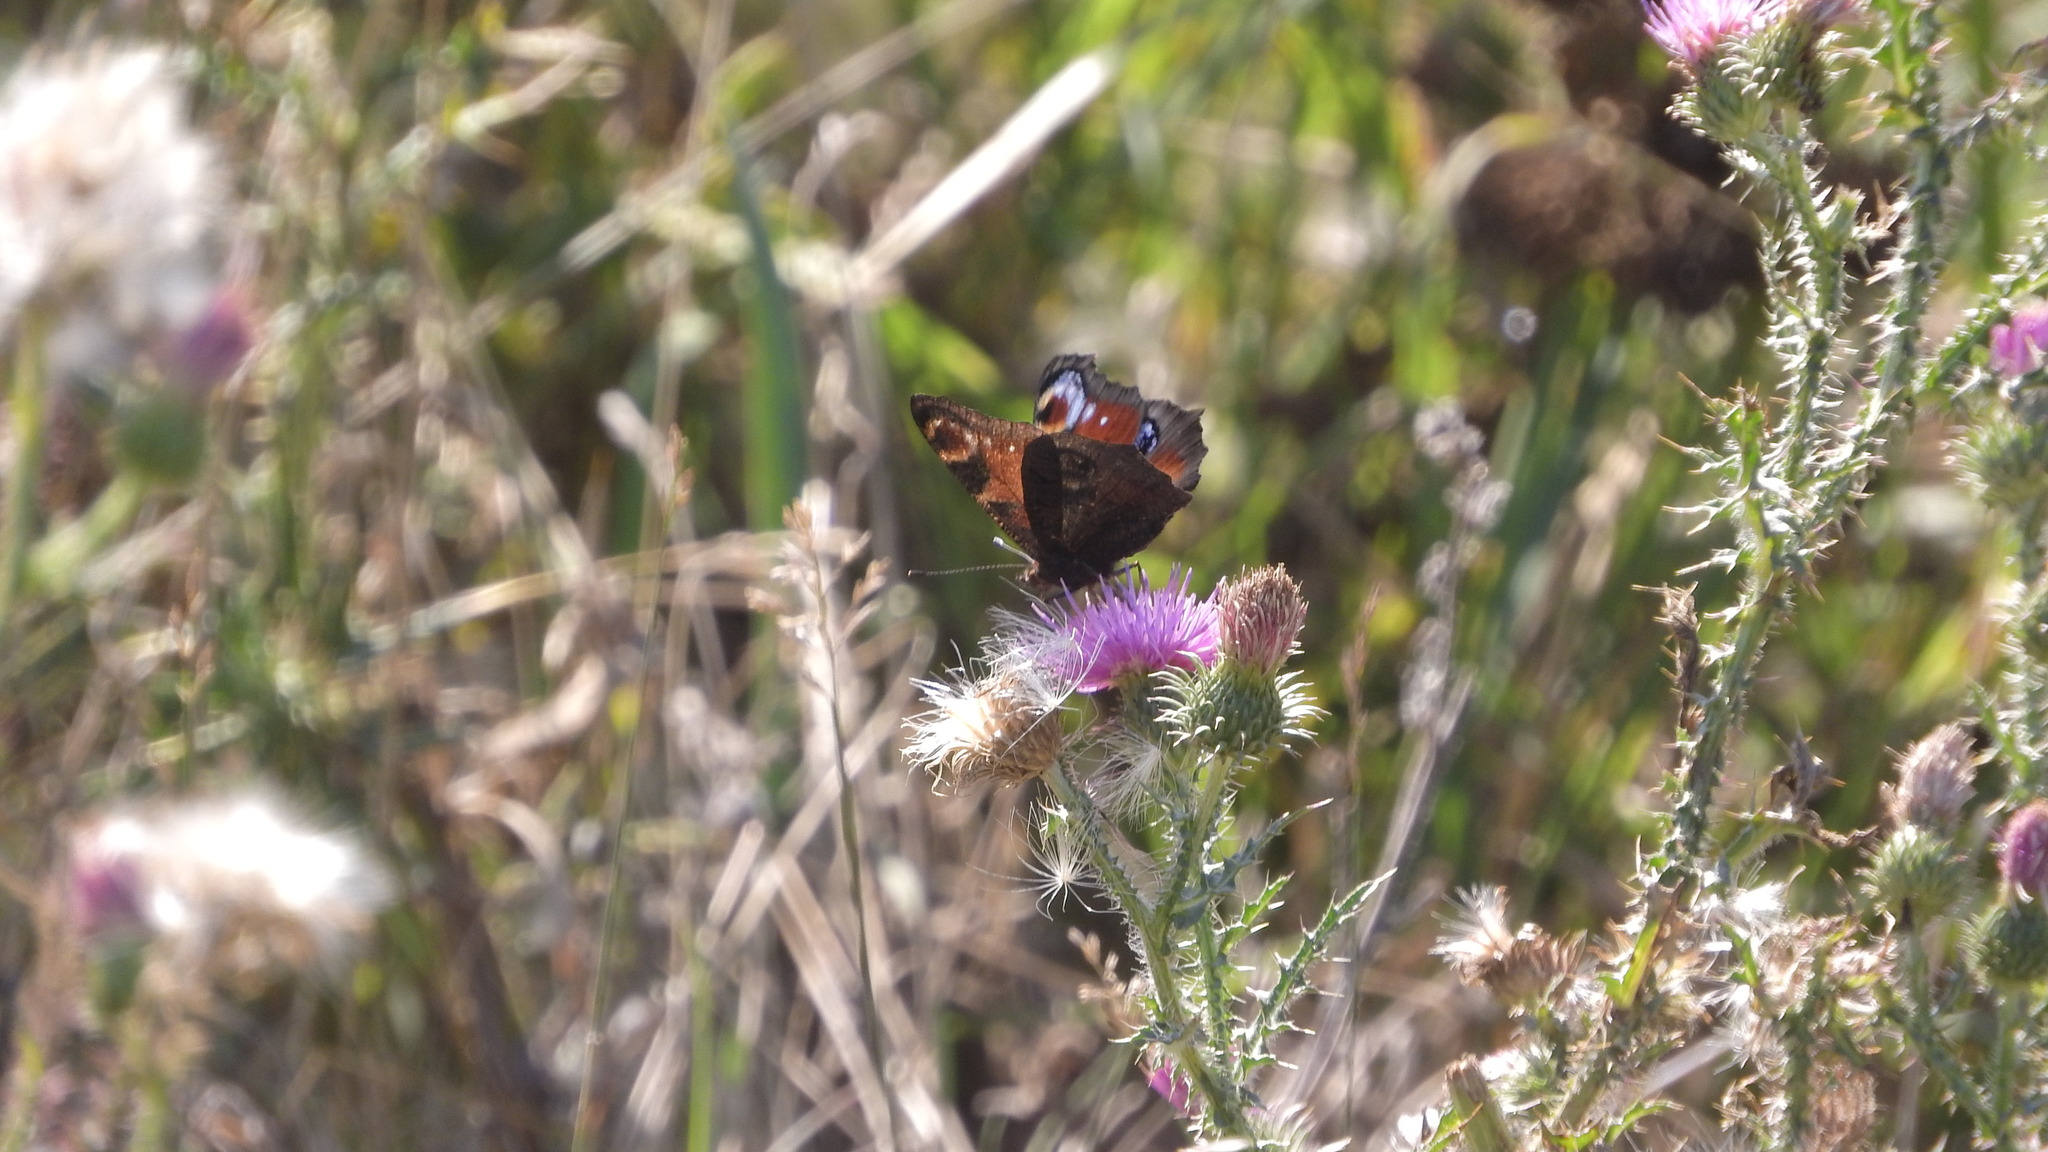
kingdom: Animalia
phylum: Arthropoda
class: Insecta
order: Lepidoptera
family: Nymphalidae
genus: Aglais
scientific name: Aglais io
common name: Peacock
